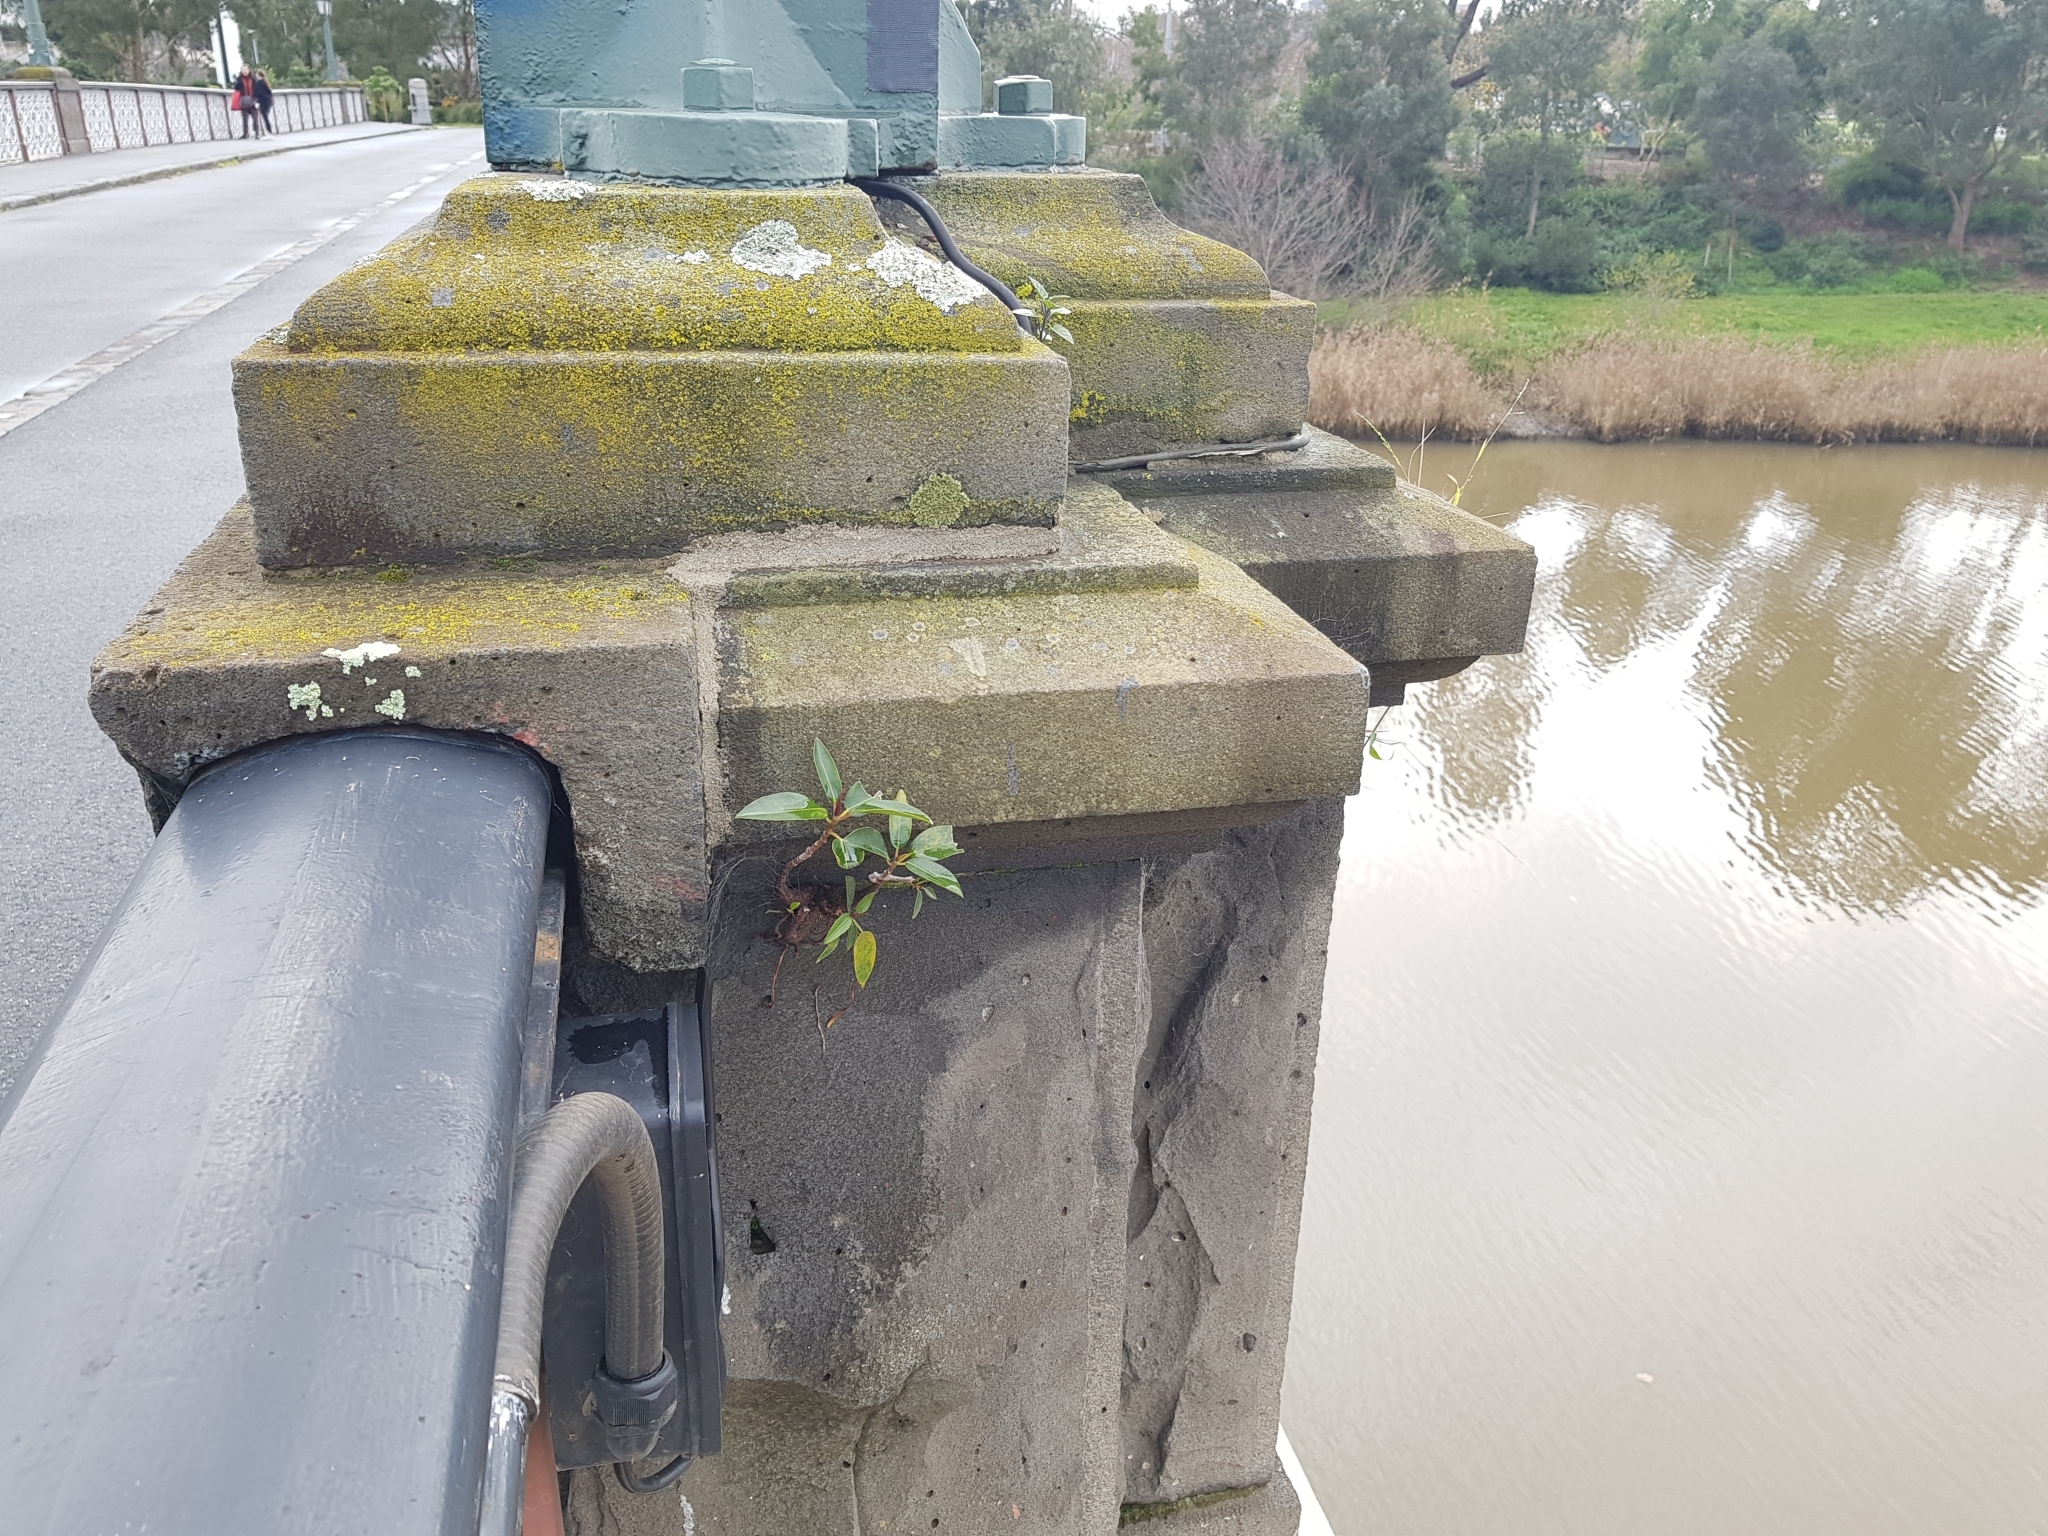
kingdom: Plantae
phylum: Tracheophyta
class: Magnoliopsida
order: Rosales
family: Moraceae
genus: Ficus
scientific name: Ficus macrophylla
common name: Moreton bay fig
